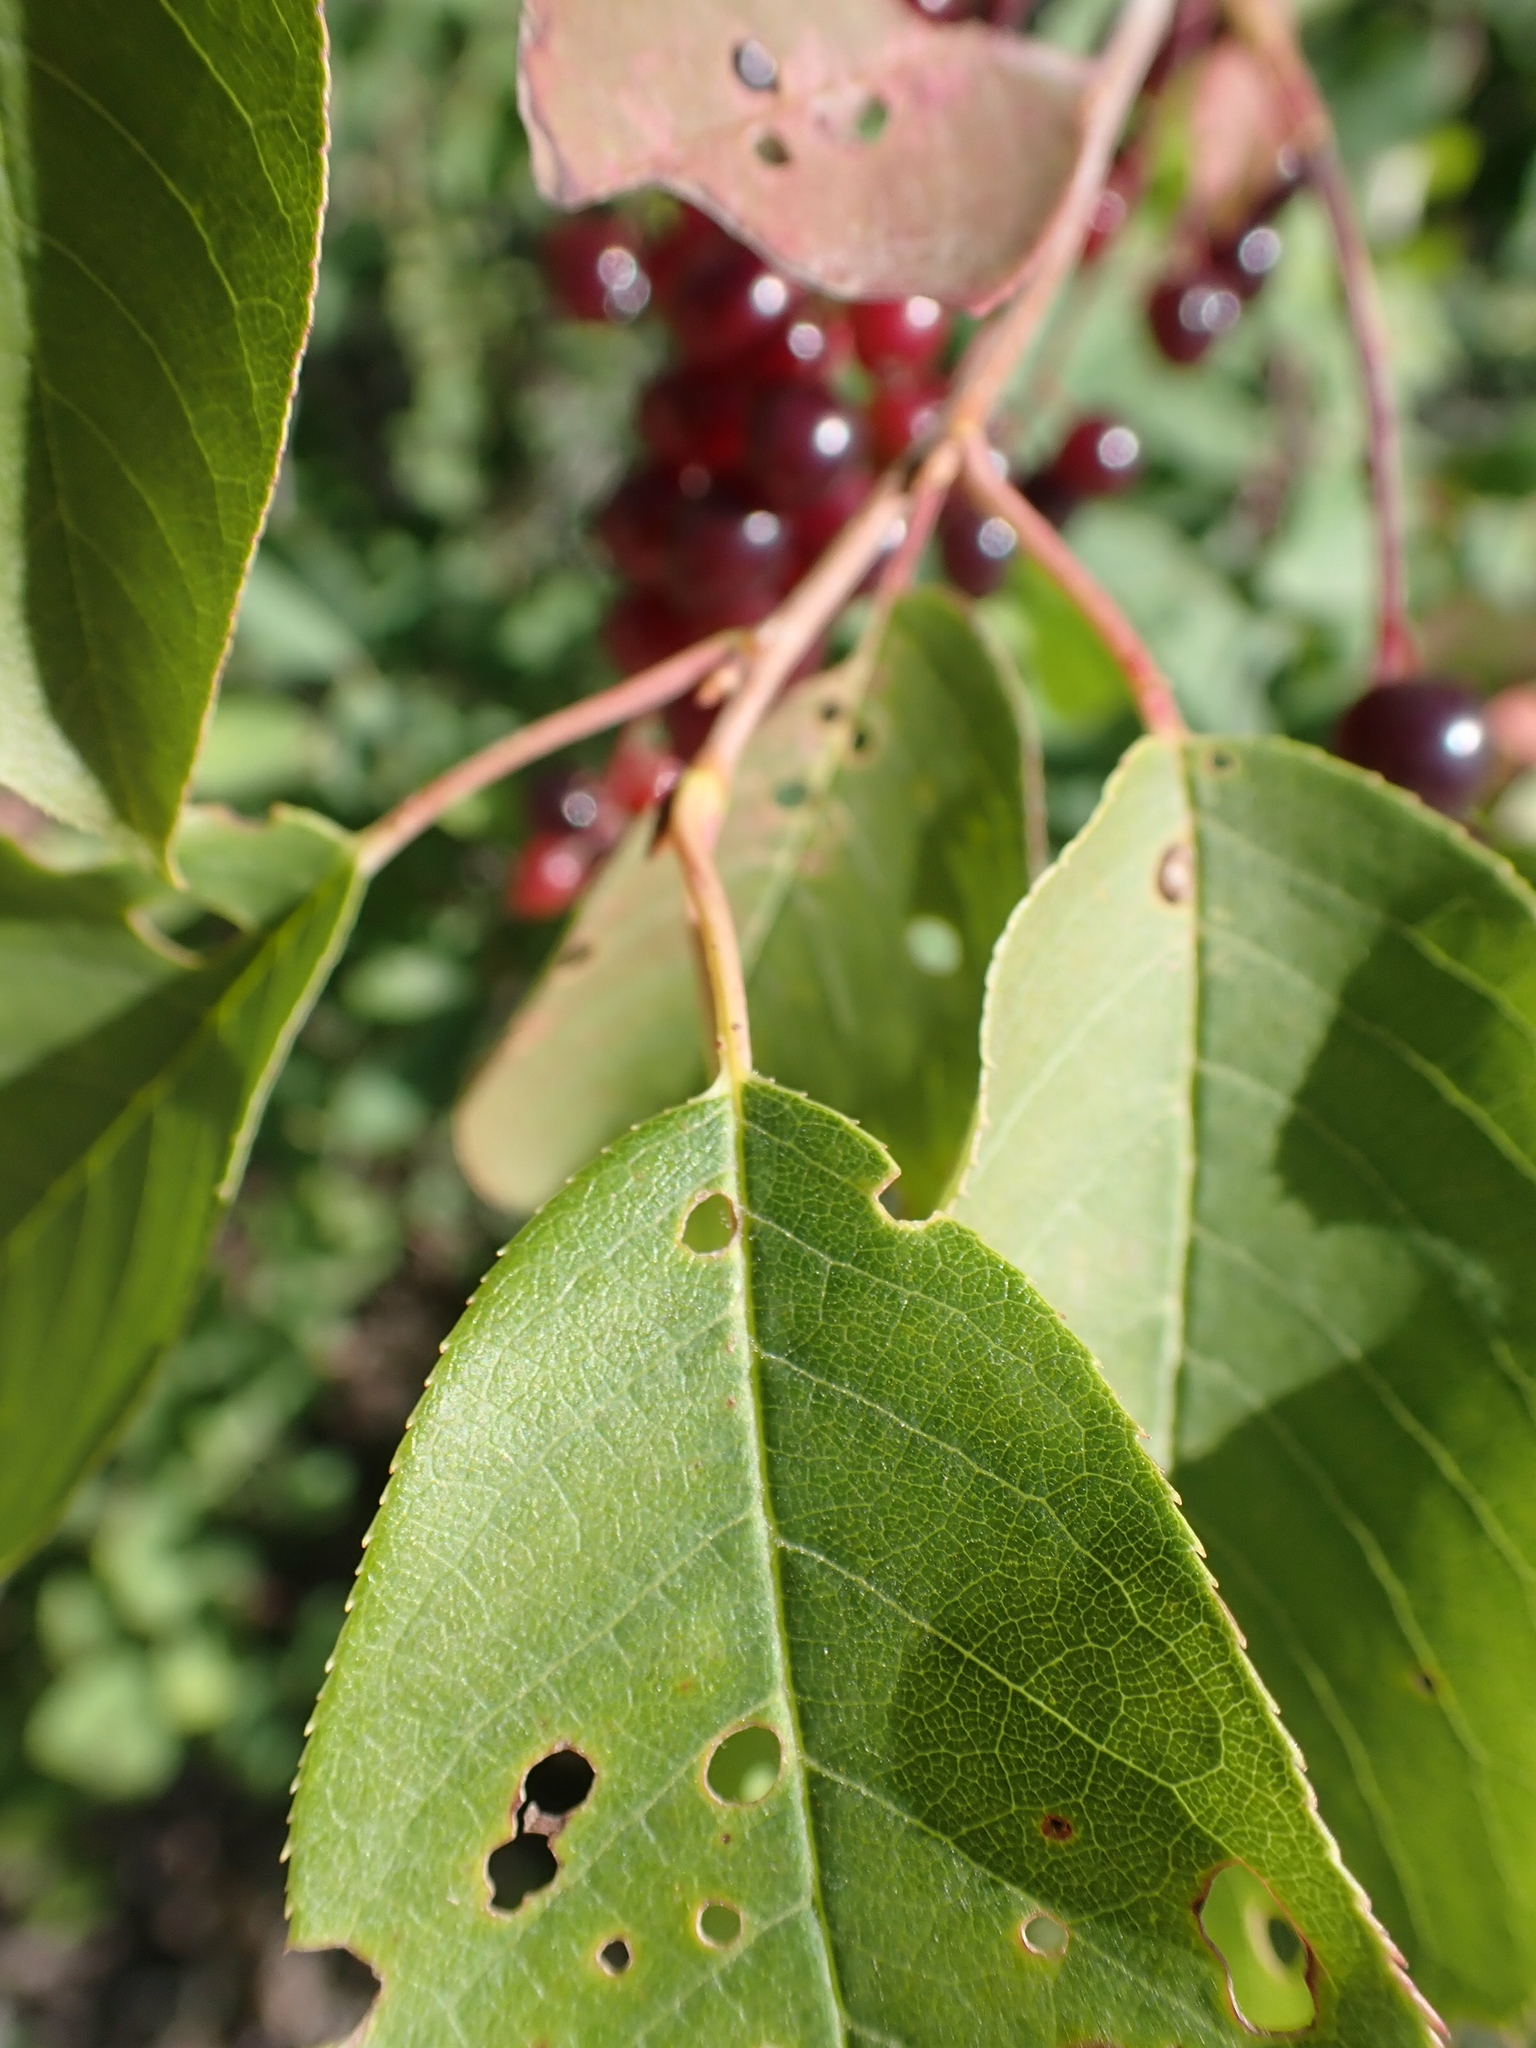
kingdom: Plantae
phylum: Tracheophyta
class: Magnoliopsida
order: Rosales
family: Rosaceae
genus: Prunus
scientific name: Prunus virginiana
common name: Chokecherry
